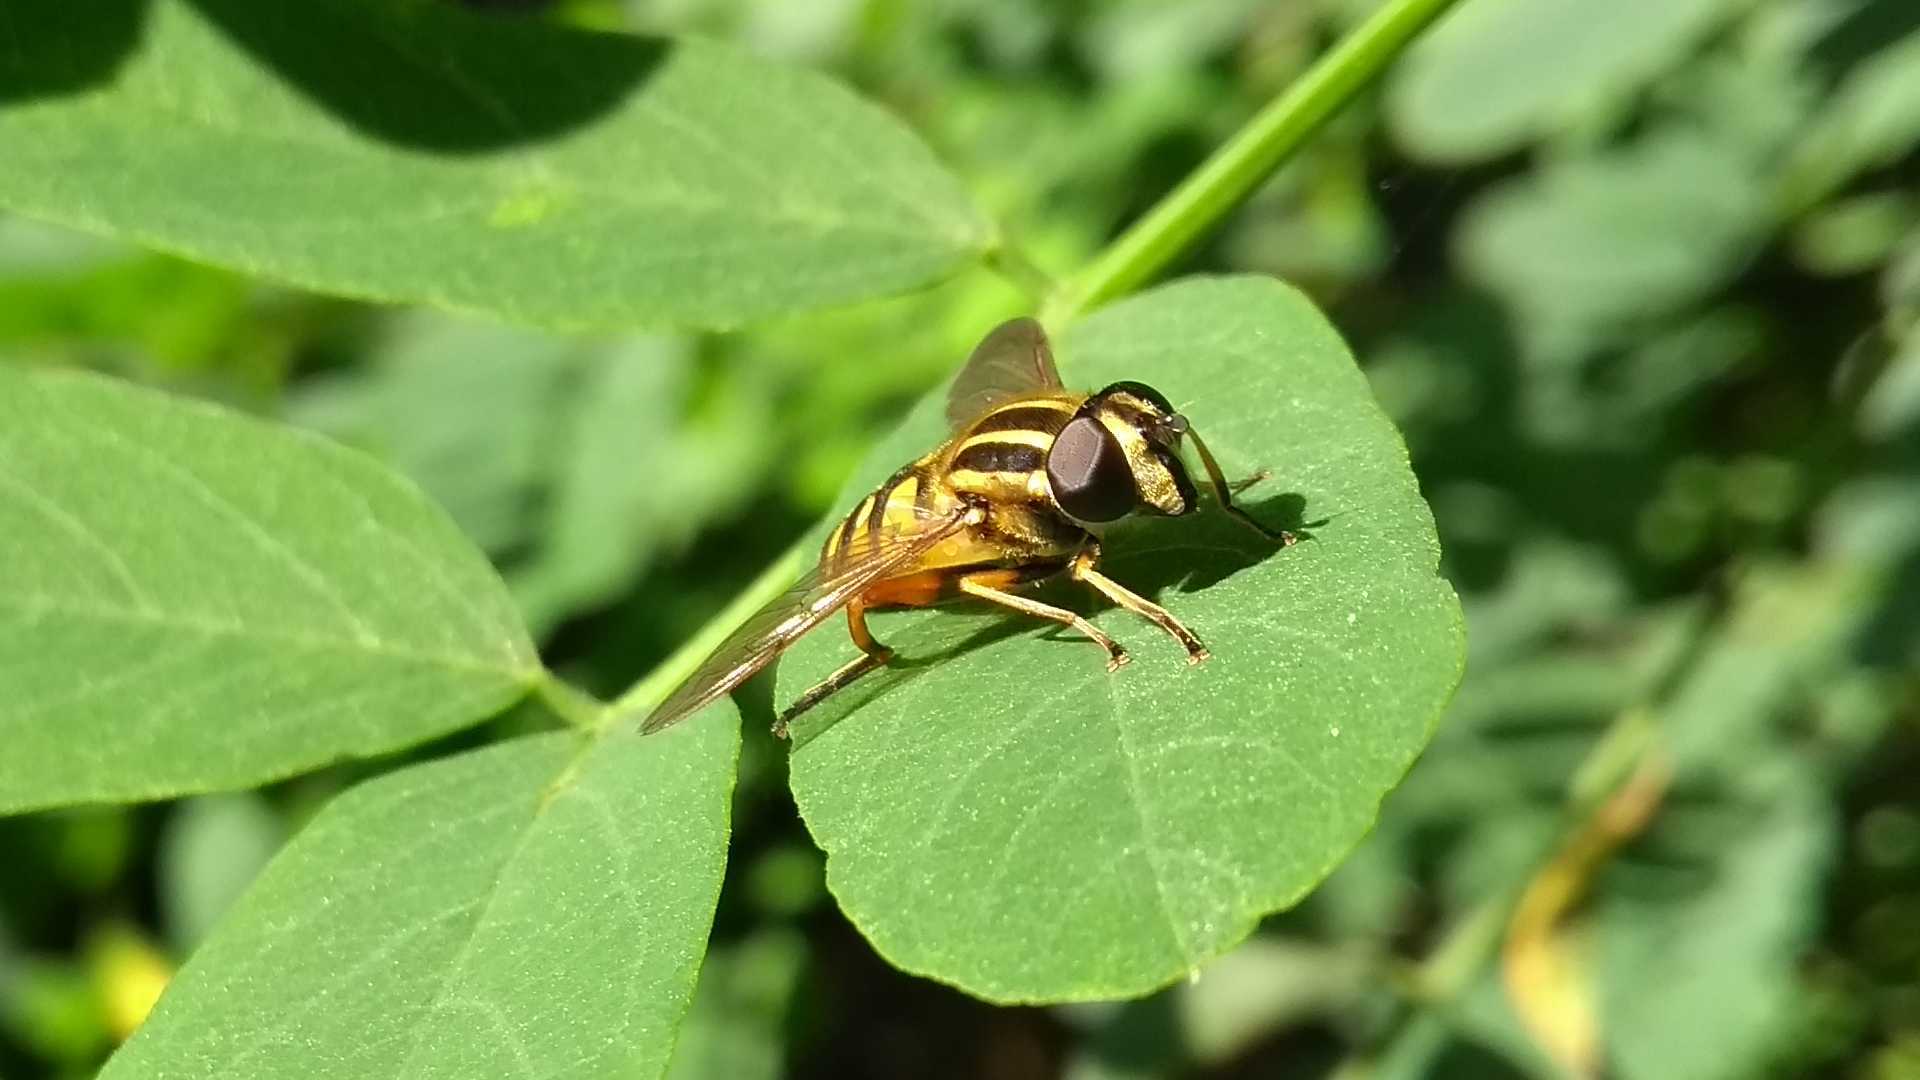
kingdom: Animalia
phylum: Arthropoda
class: Insecta
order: Diptera
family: Syrphidae
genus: Helophilus
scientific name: Helophilus pendulus
